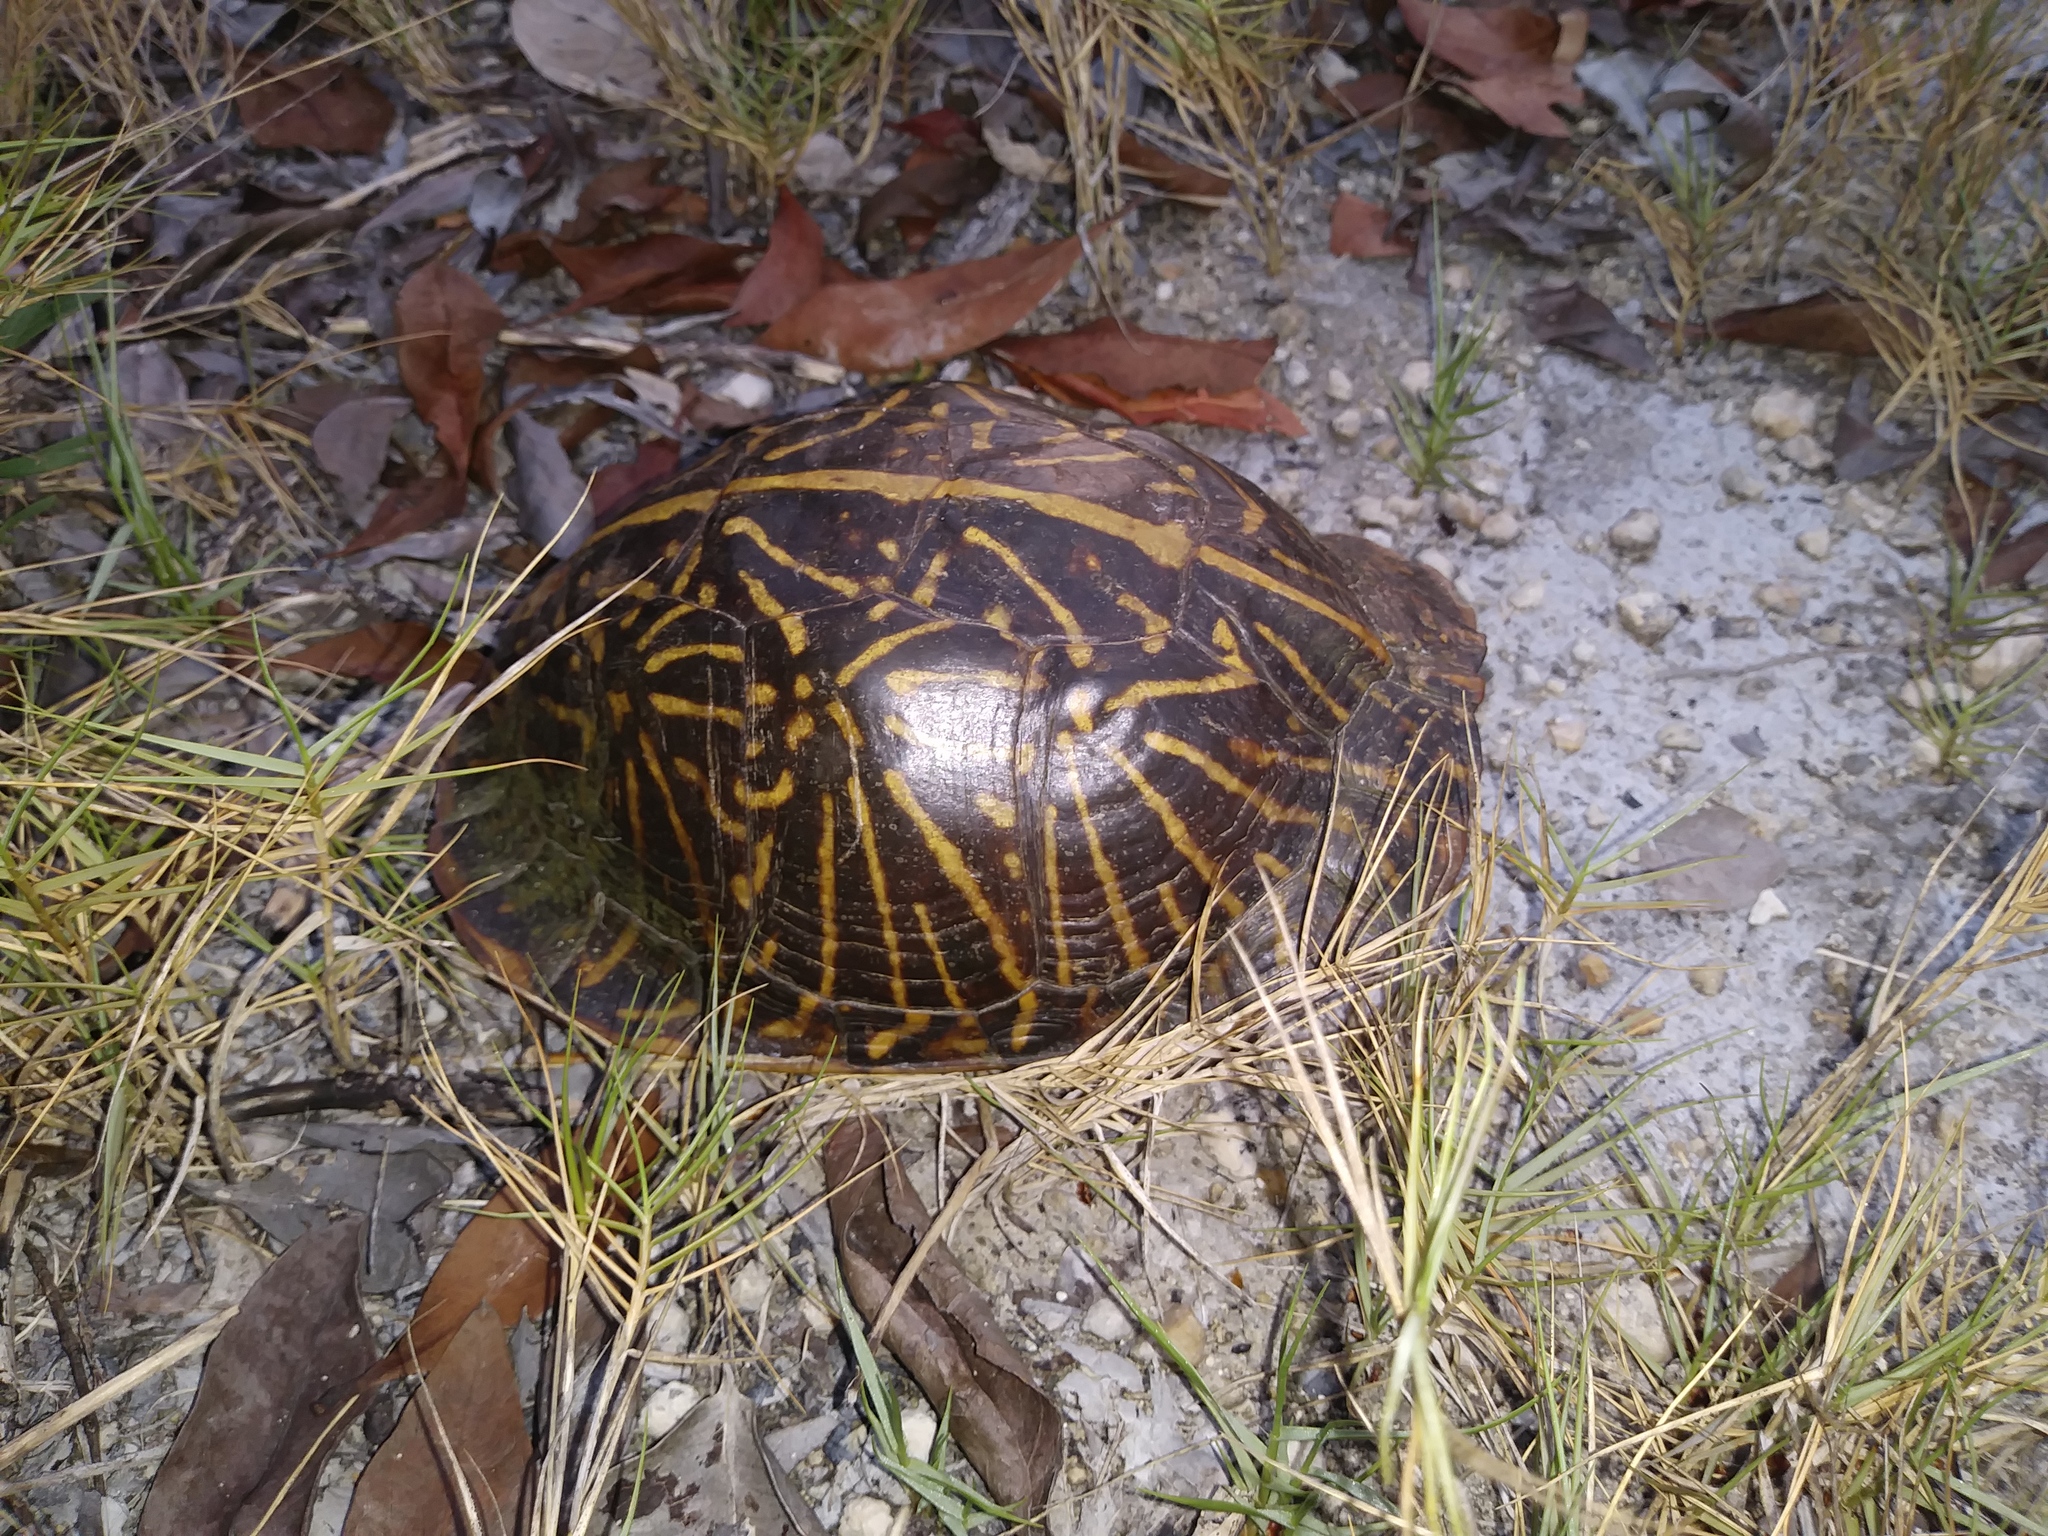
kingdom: Animalia
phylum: Chordata
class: Testudines
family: Emydidae
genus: Terrapene
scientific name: Terrapene carolina
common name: Common box turtle
